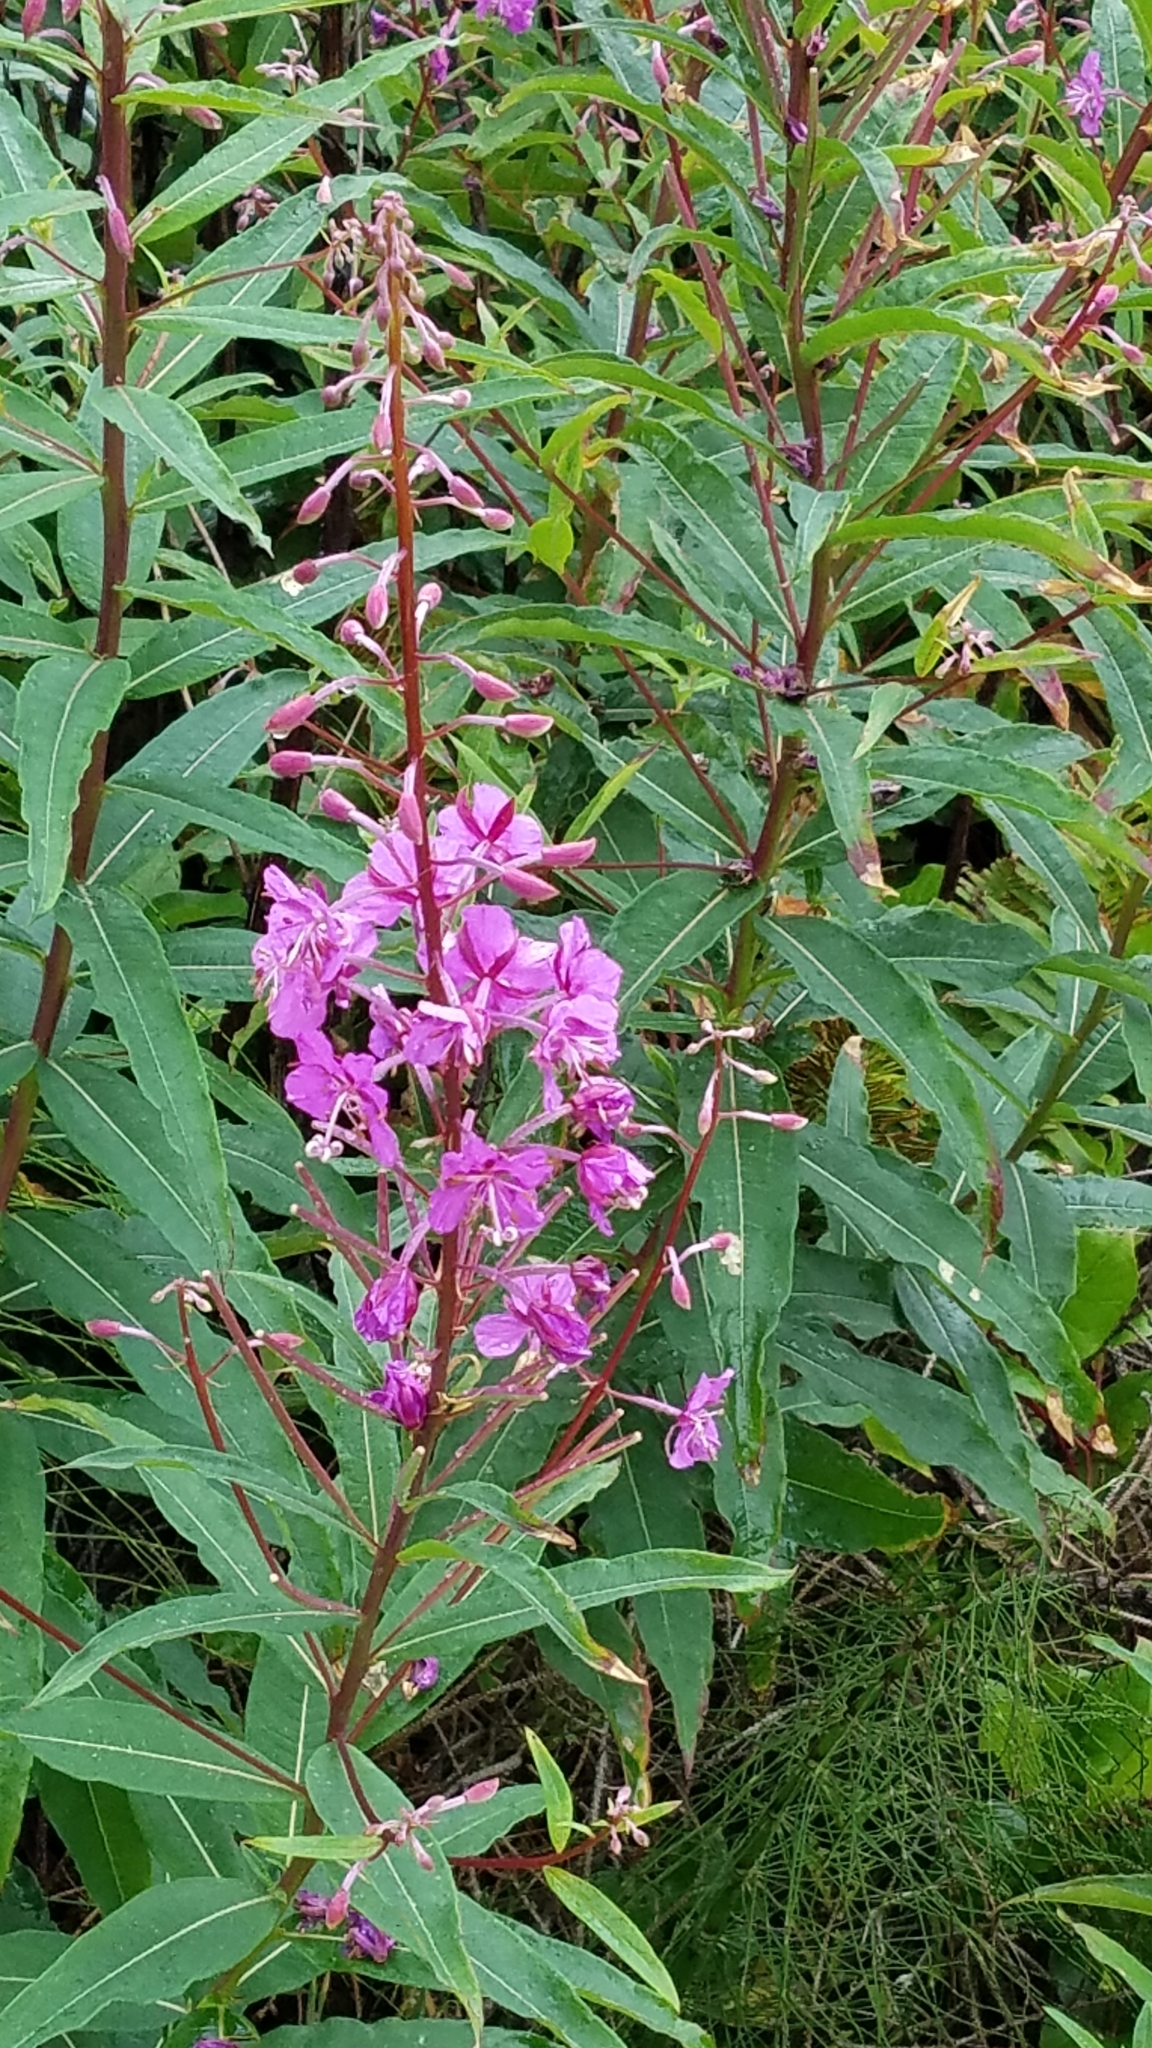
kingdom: Plantae
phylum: Tracheophyta
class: Magnoliopsida
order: Myrtales
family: Onagraceae
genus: Chamaenerion
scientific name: Chamaenerion angustifolium
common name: Fireweed
